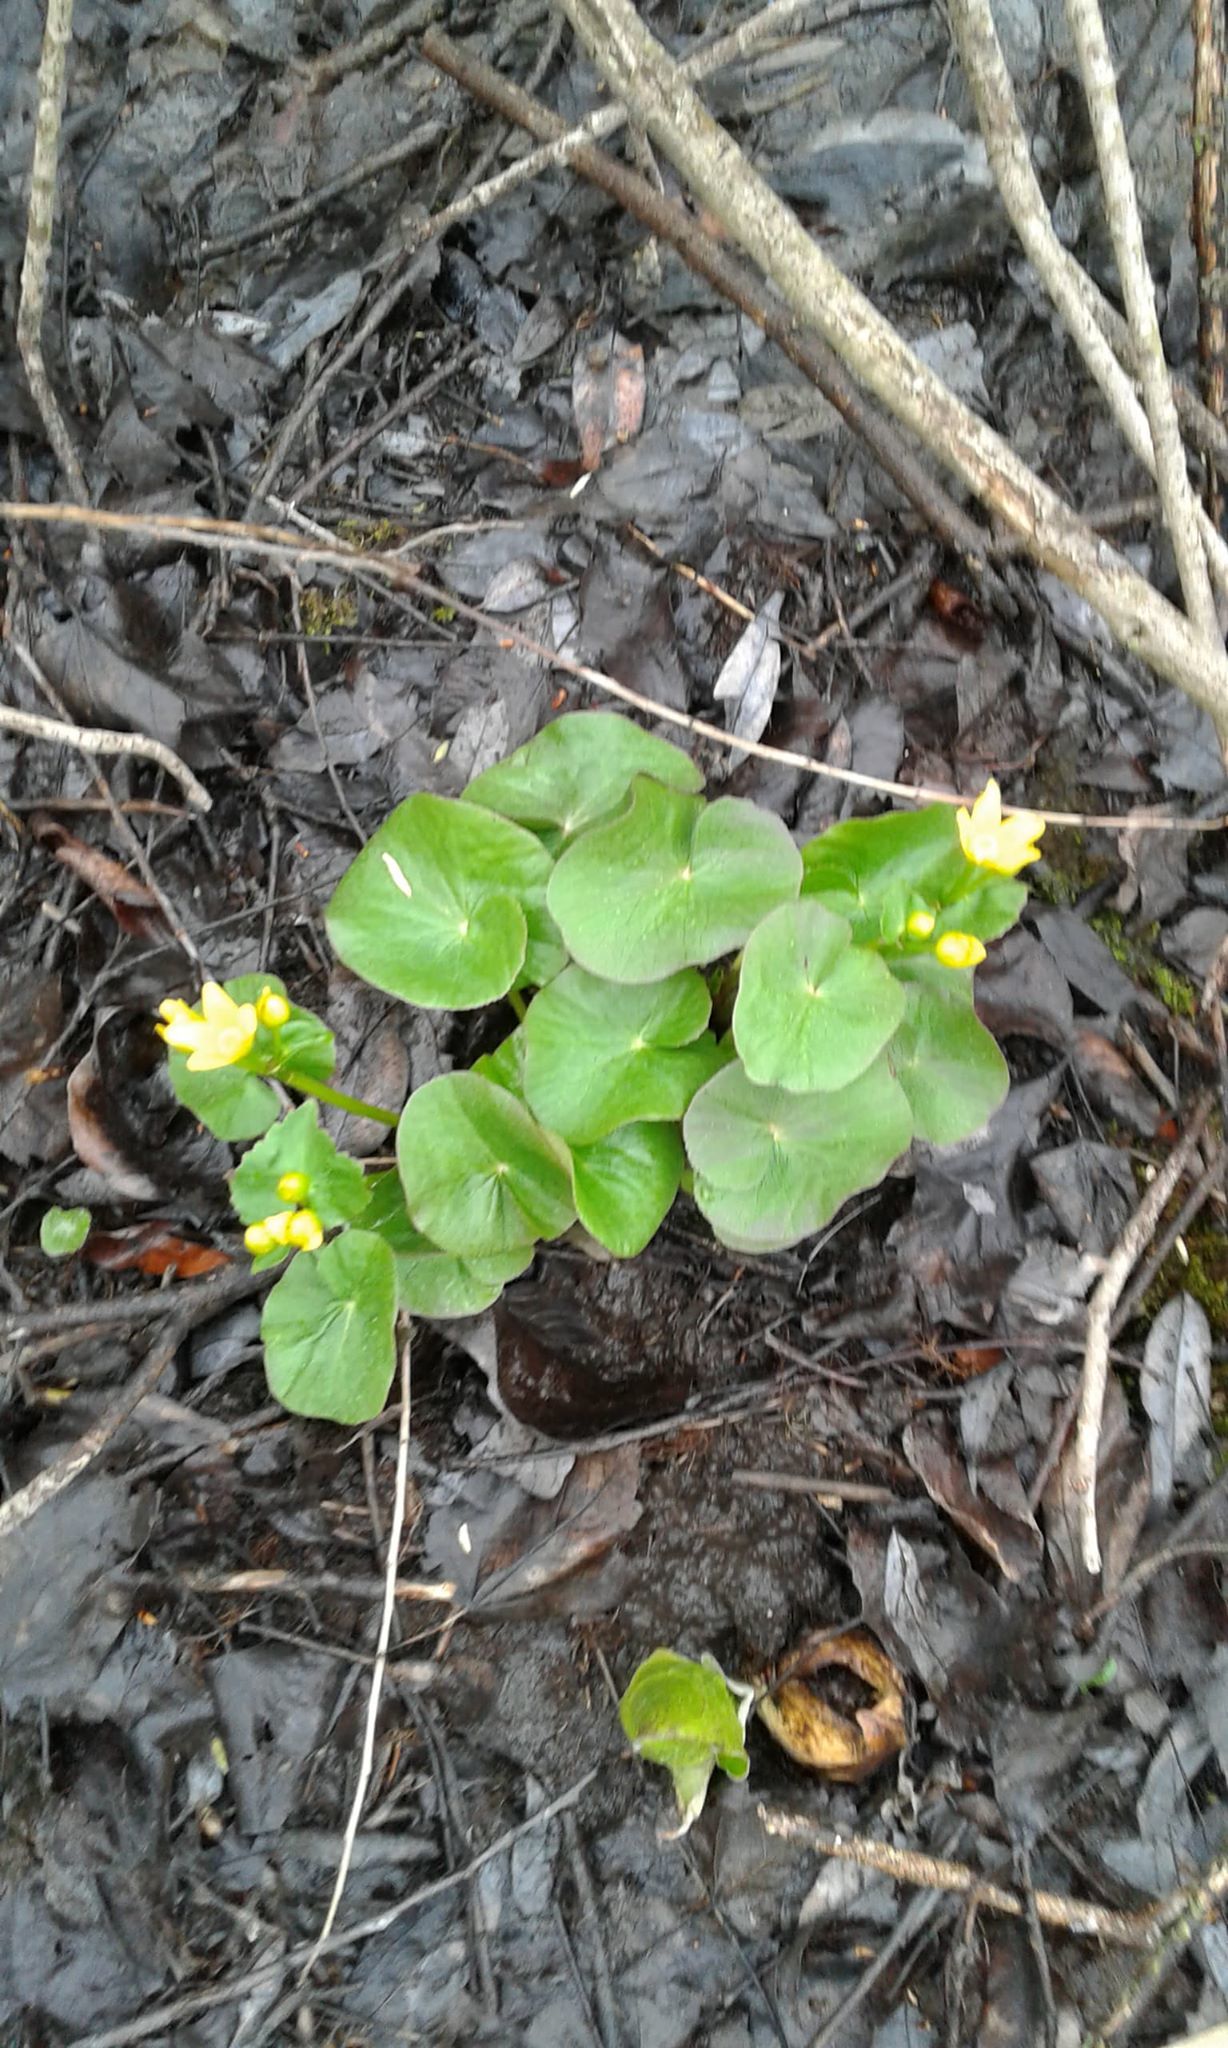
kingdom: Plantae
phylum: Tracheophyta
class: Magnoliopsida
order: Ranunculales
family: Ranunculaceae
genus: Caltha
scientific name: Caltha palustris
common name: Marsh marigold
